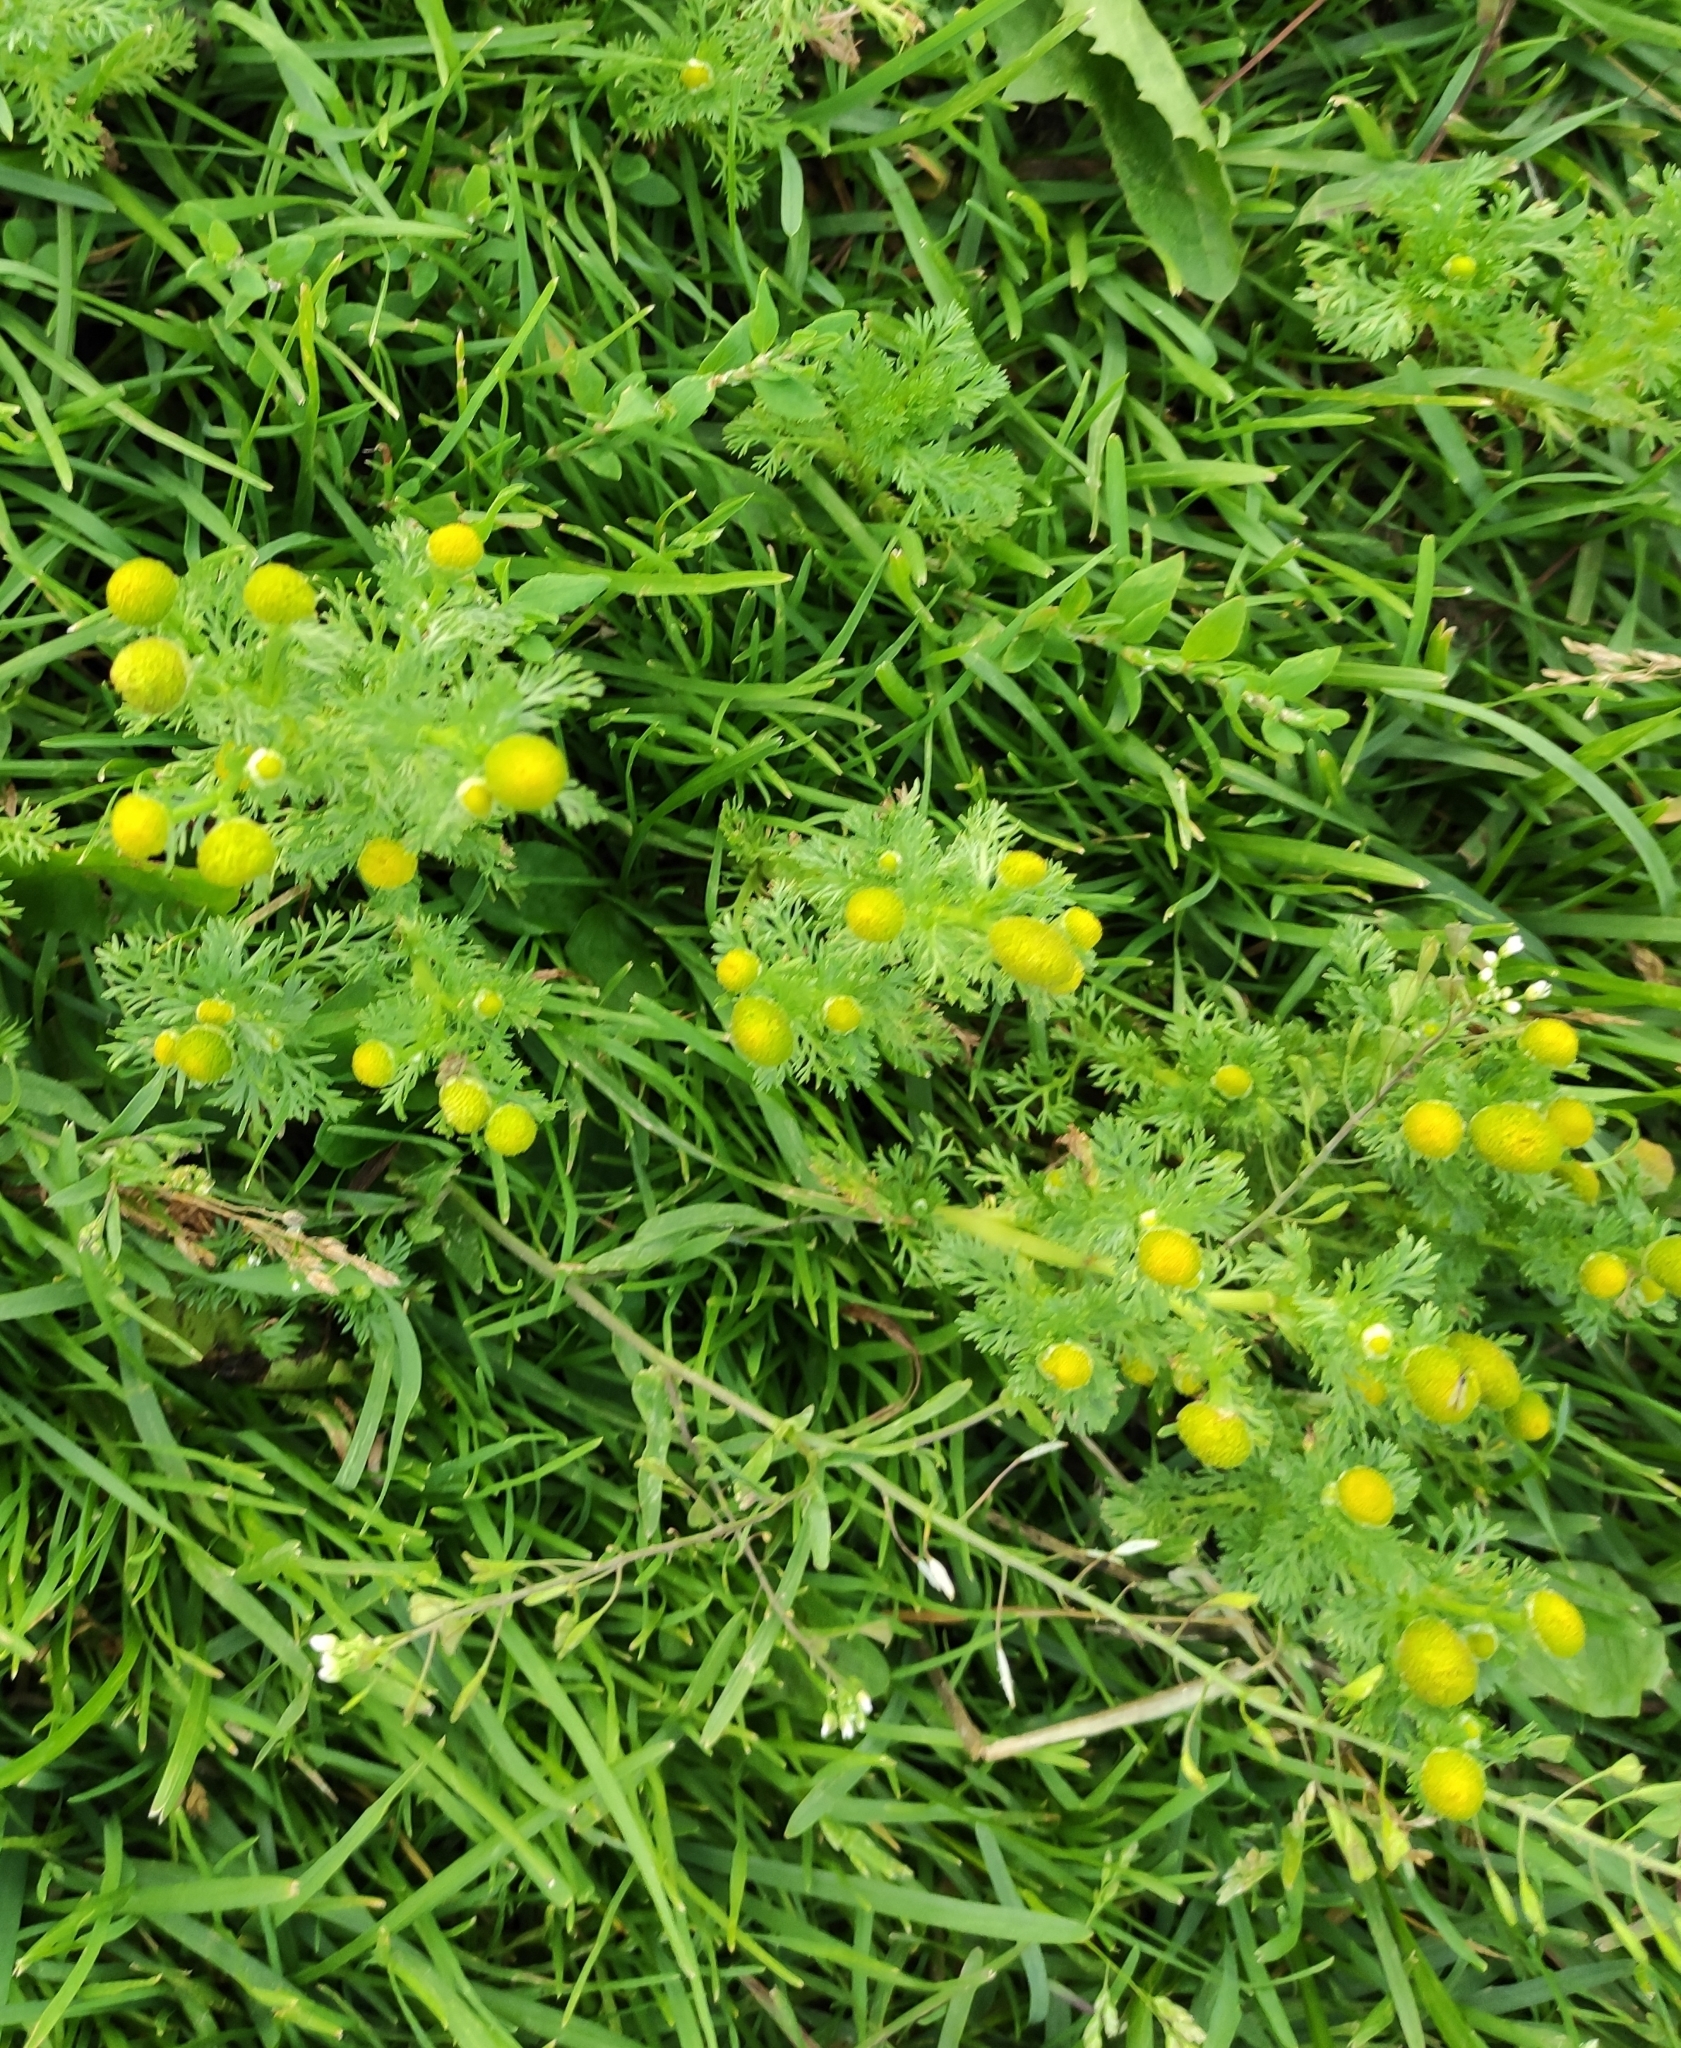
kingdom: Plantae
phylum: Tracheophyta
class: Magnoliopsida
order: Asterales
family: Asteraceae
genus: Matricaria
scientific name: Matricaria discoidea
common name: Disc mayweed
